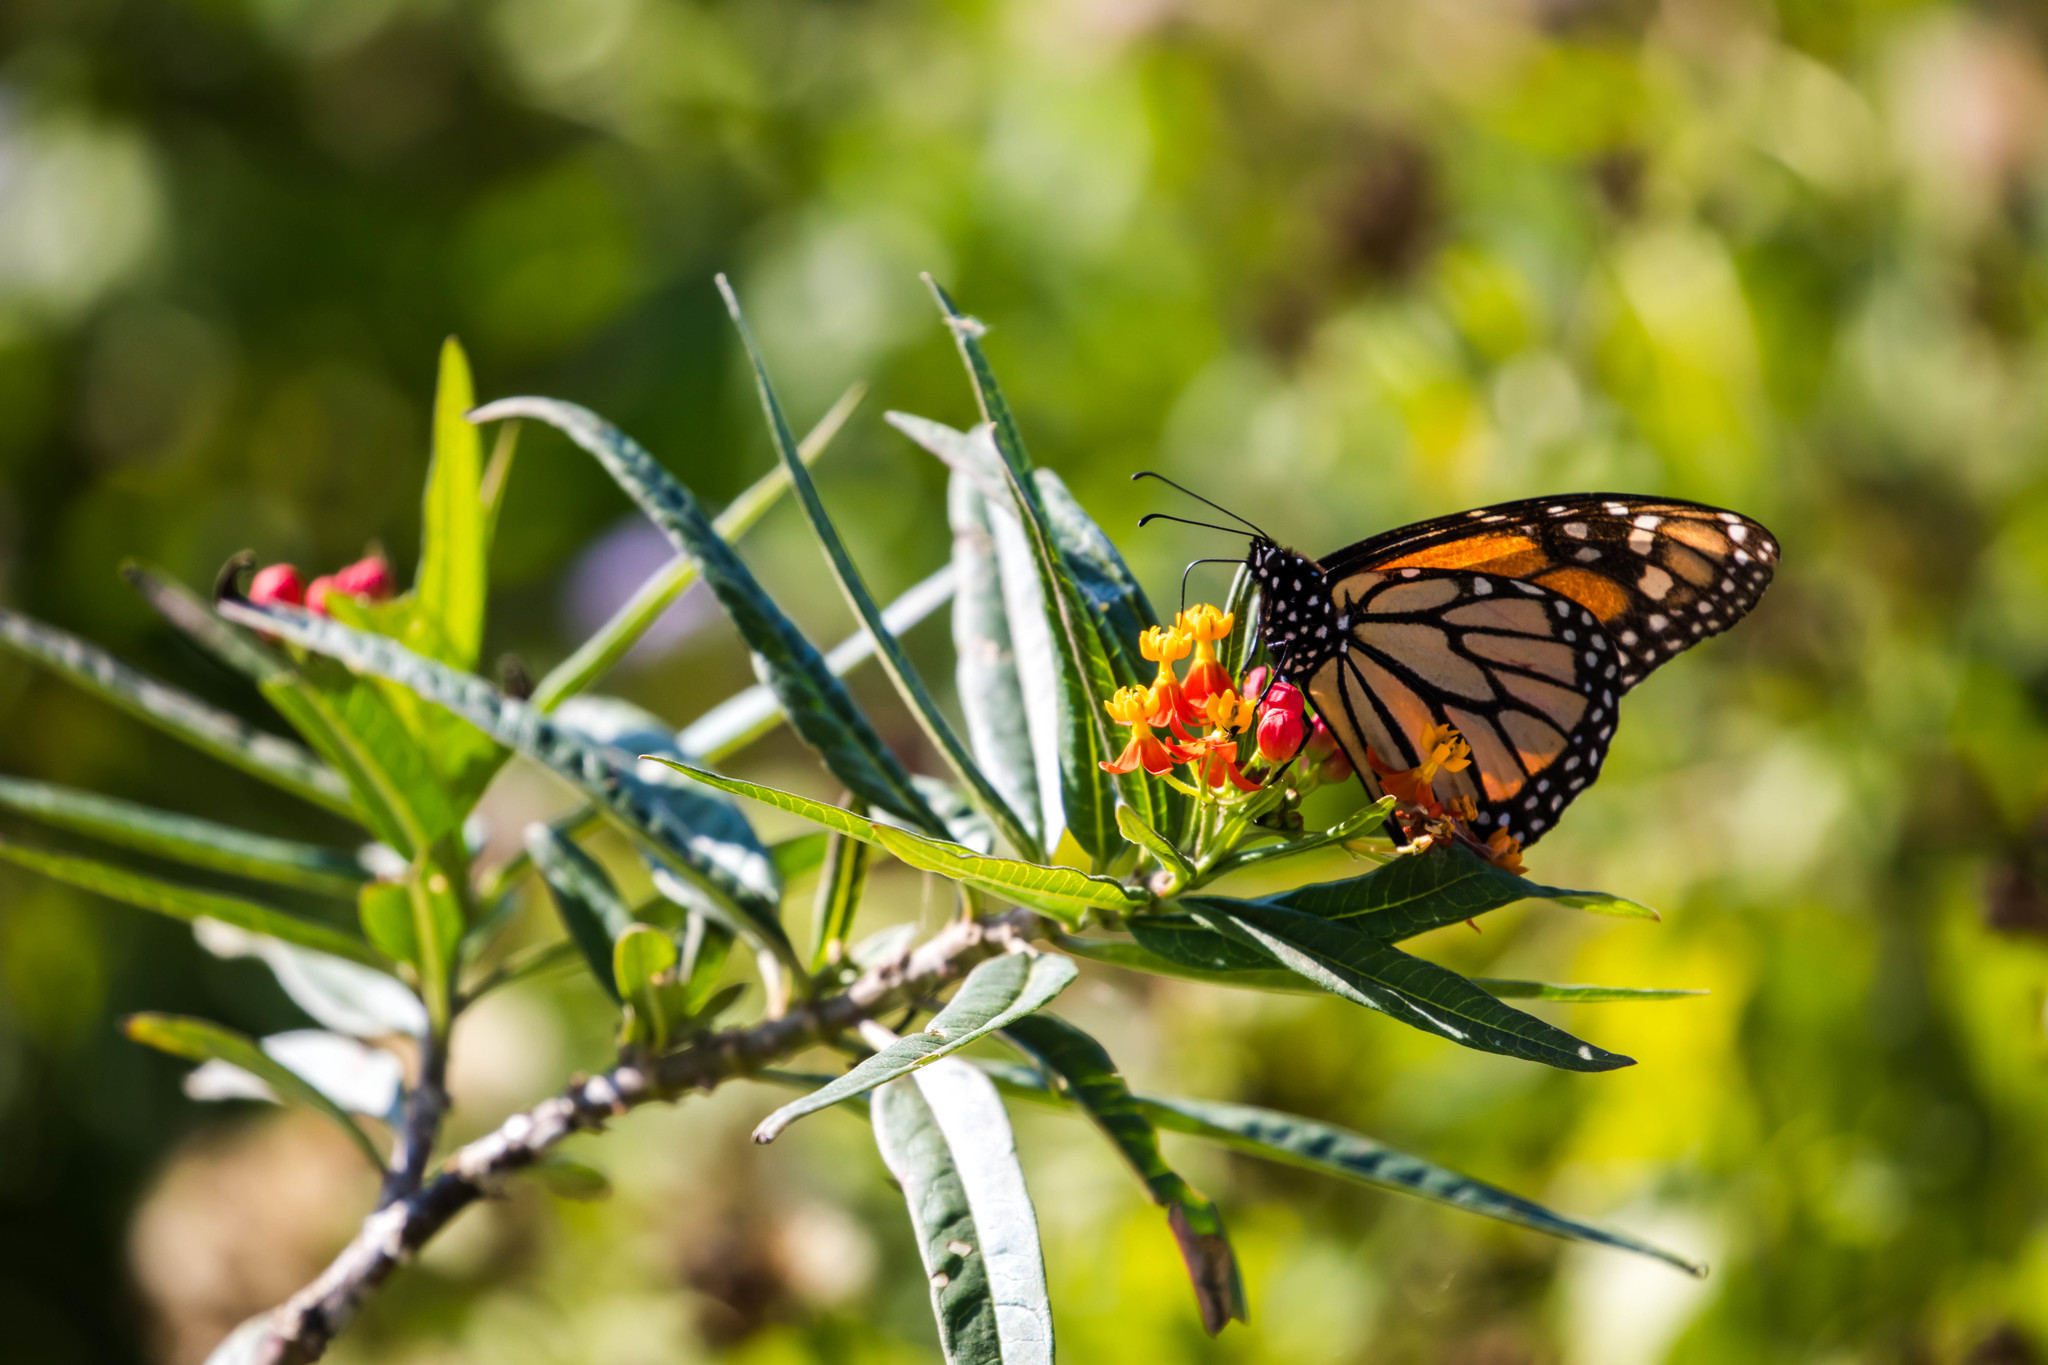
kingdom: Animalia
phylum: Arthropoda
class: Insecta
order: Lepidoptera
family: Nymphalidae
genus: Danaus
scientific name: Danaus plexippus
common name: Monarch
